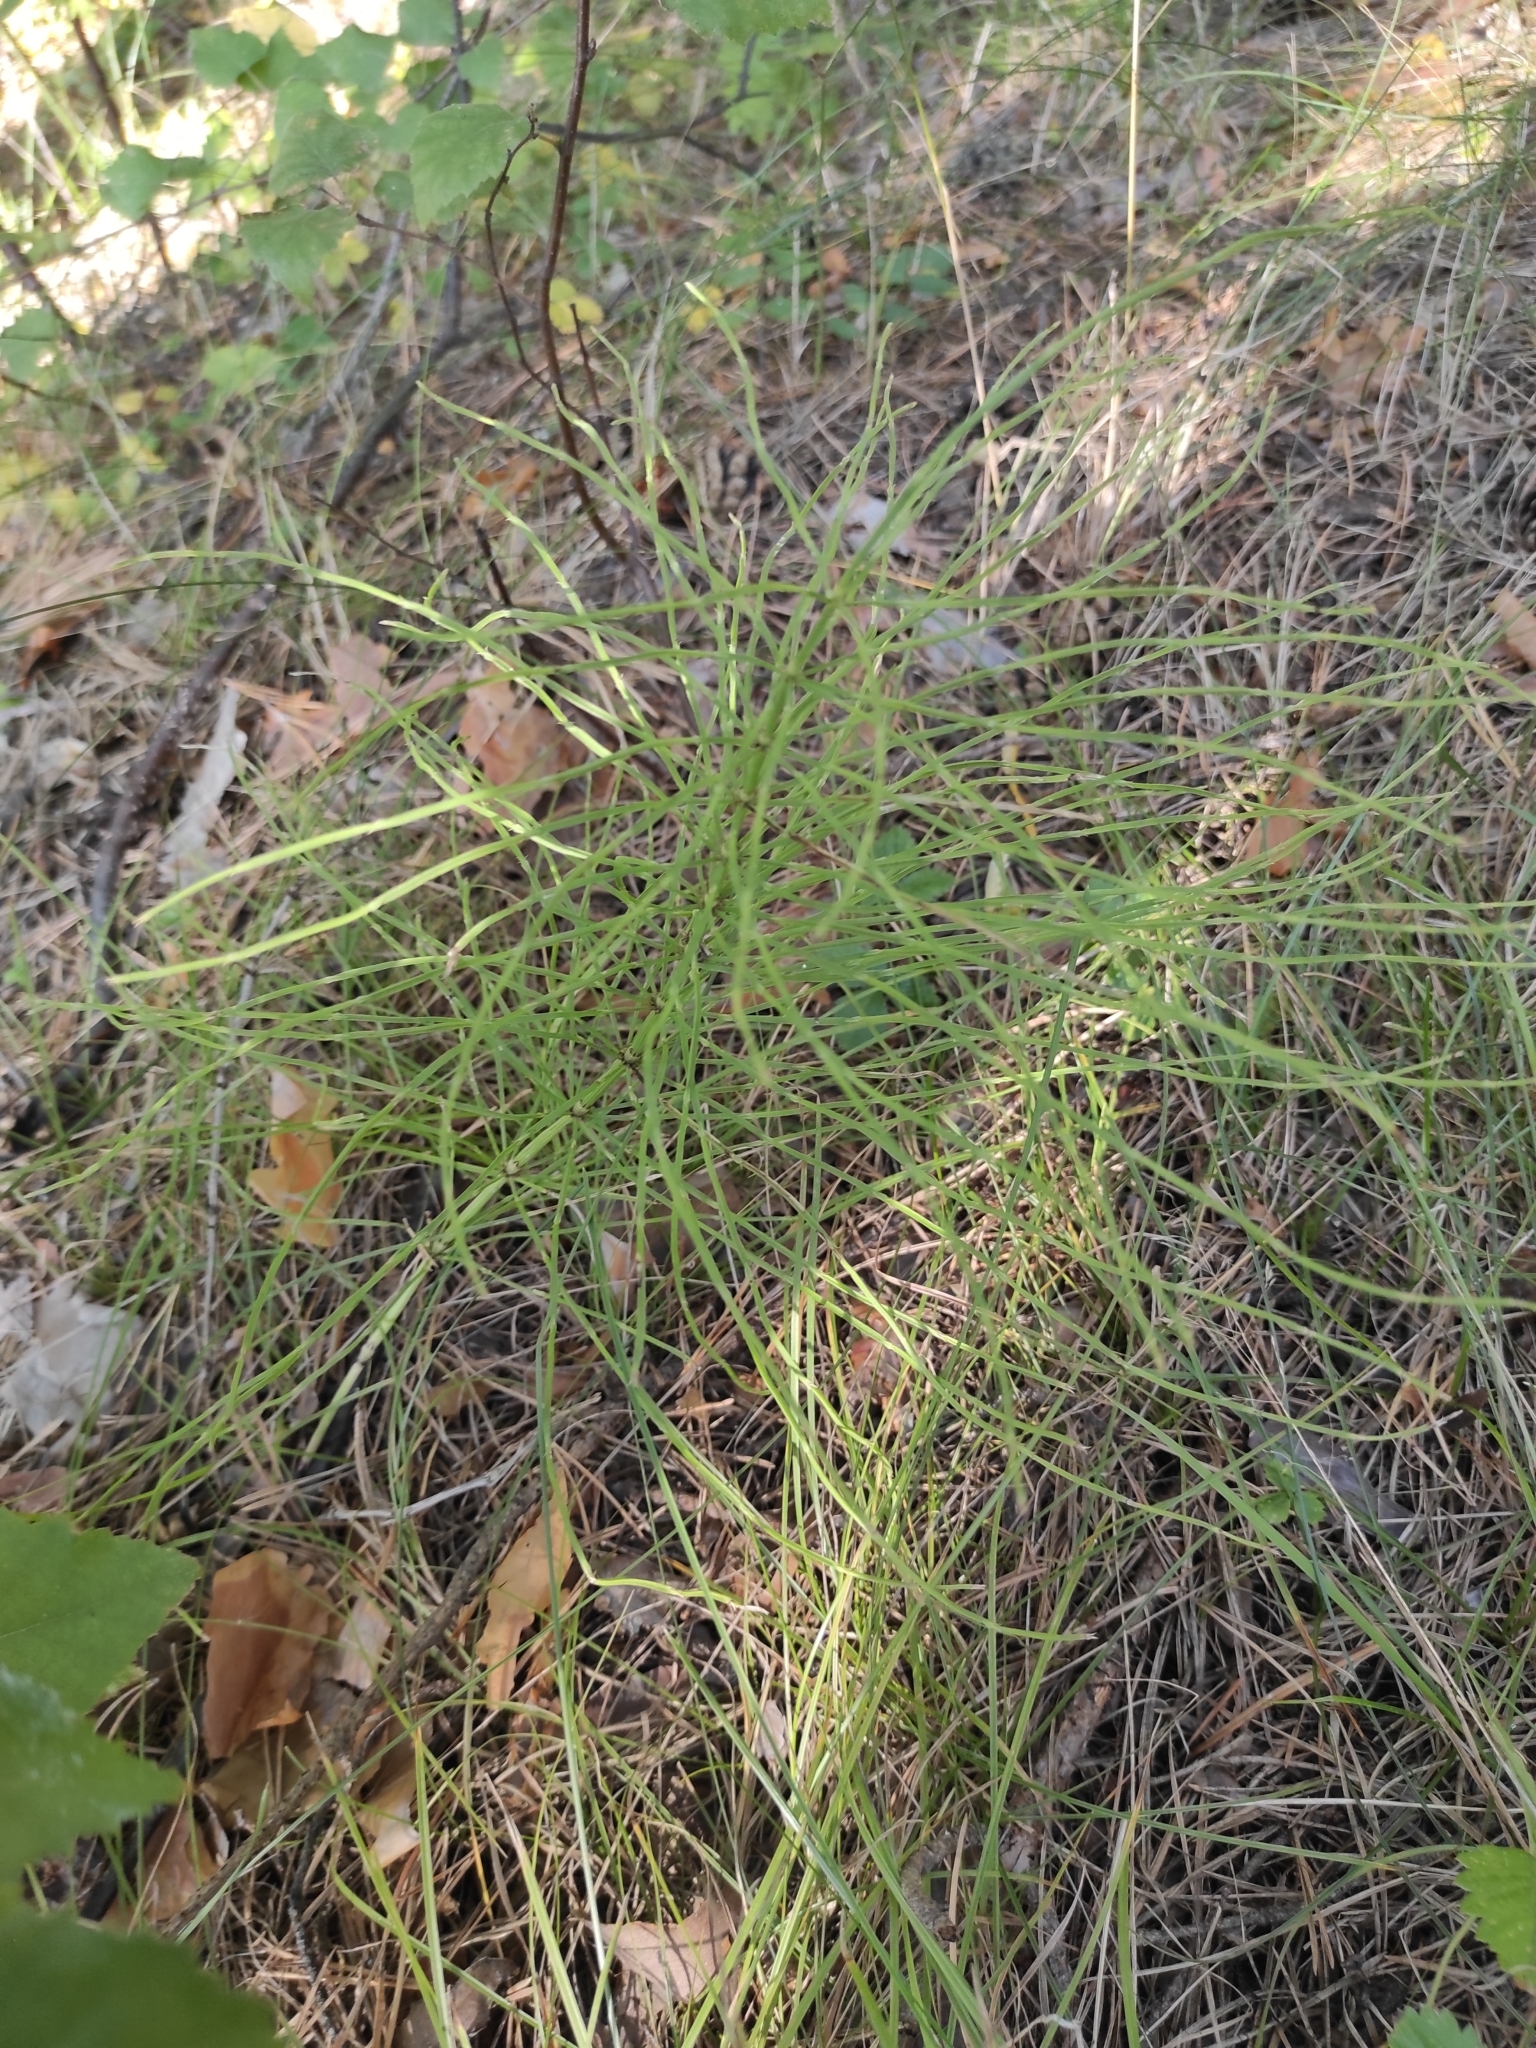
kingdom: Plantae
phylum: Tracheophyta
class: Polypodiopsida
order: Equisetales
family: Equisetaceae
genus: Equisetum
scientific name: Equisetum arvense
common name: Field horsetail
